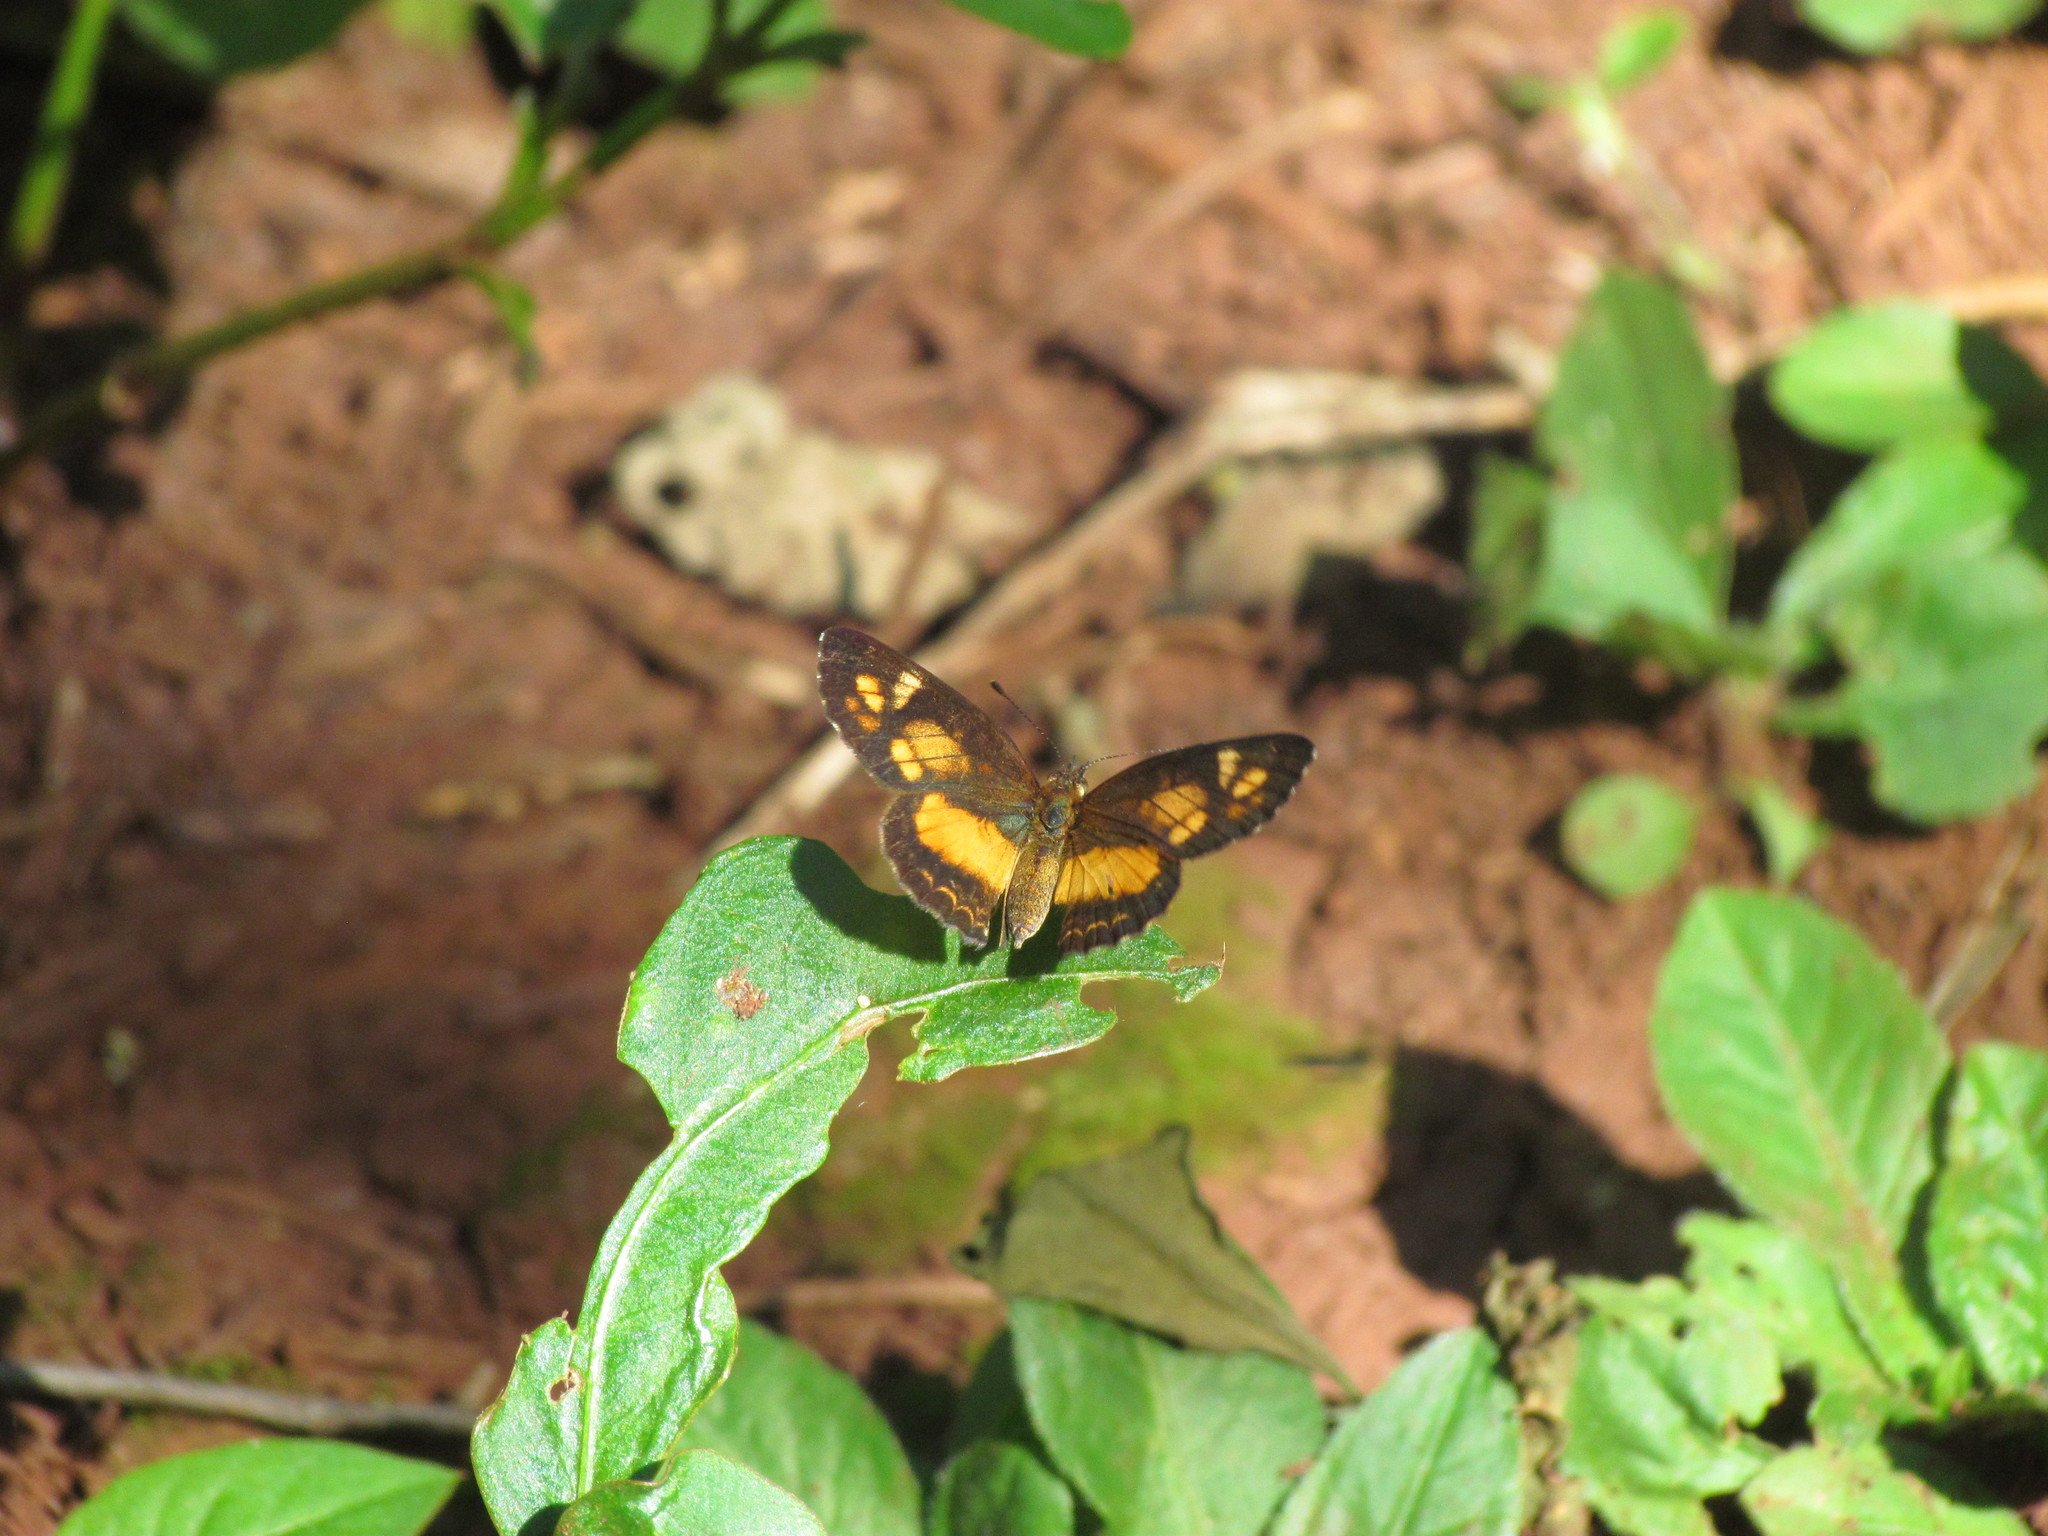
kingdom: Animalia
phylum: Arthropoda
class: Insecta
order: Lepidoptera
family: Nymphalidae
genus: Ortilia
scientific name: Ortilia dicoma
